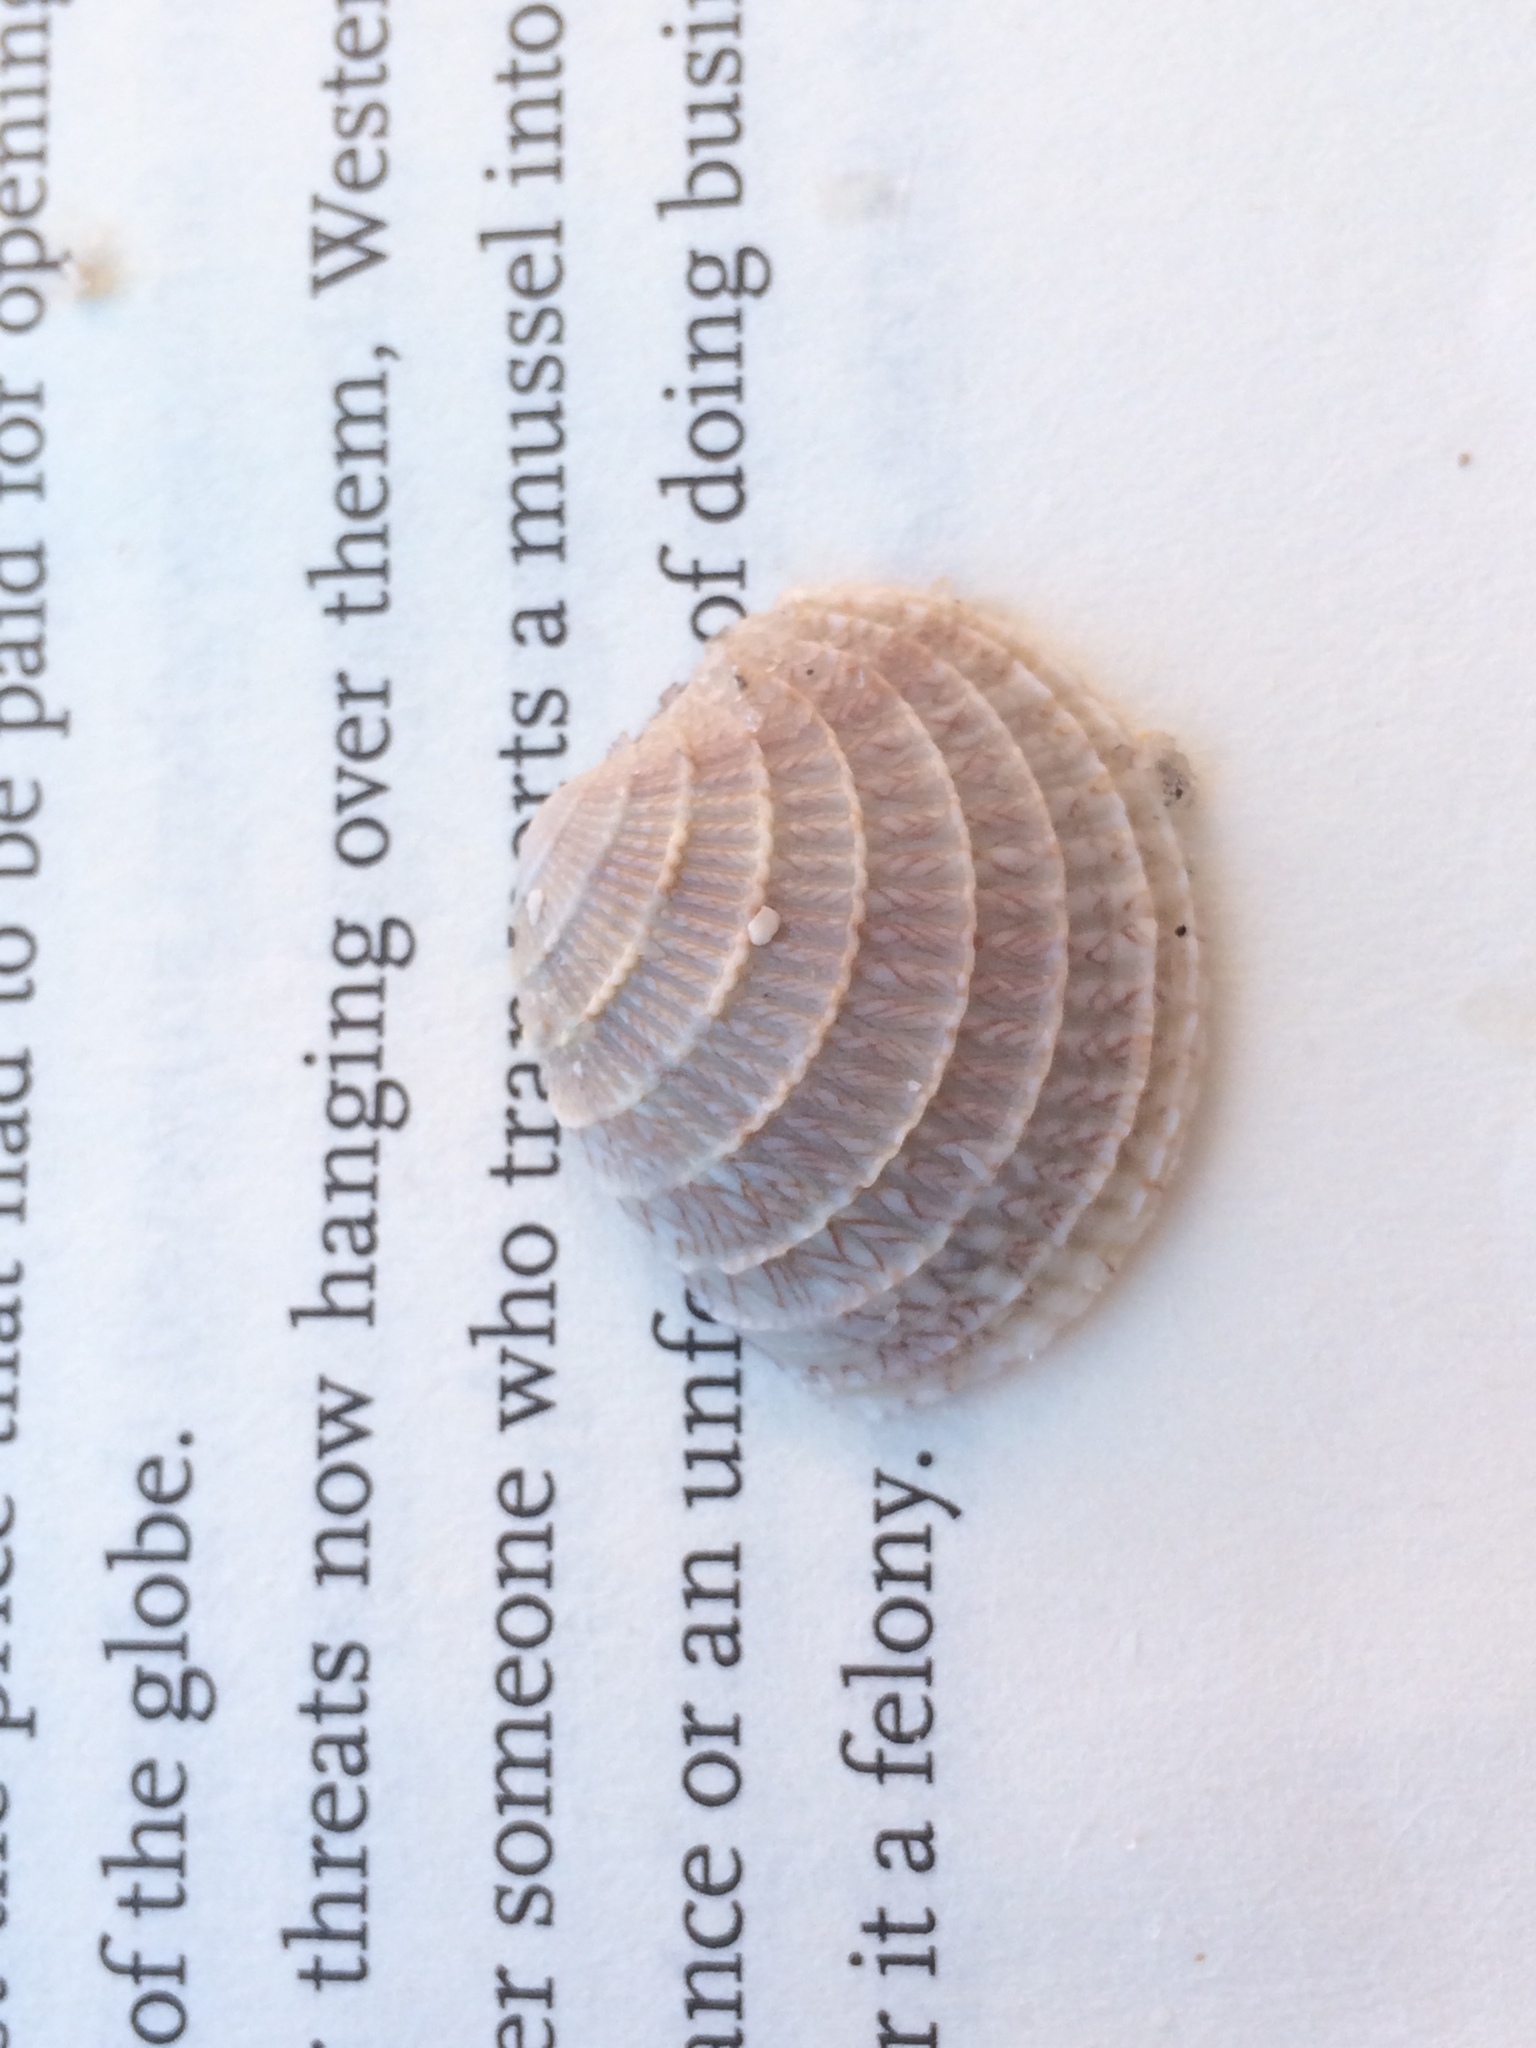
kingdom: Animalia
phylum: Mollusca
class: Bivalvia
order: Venerida
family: Veneridae
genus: Chione
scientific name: Chione elevata
